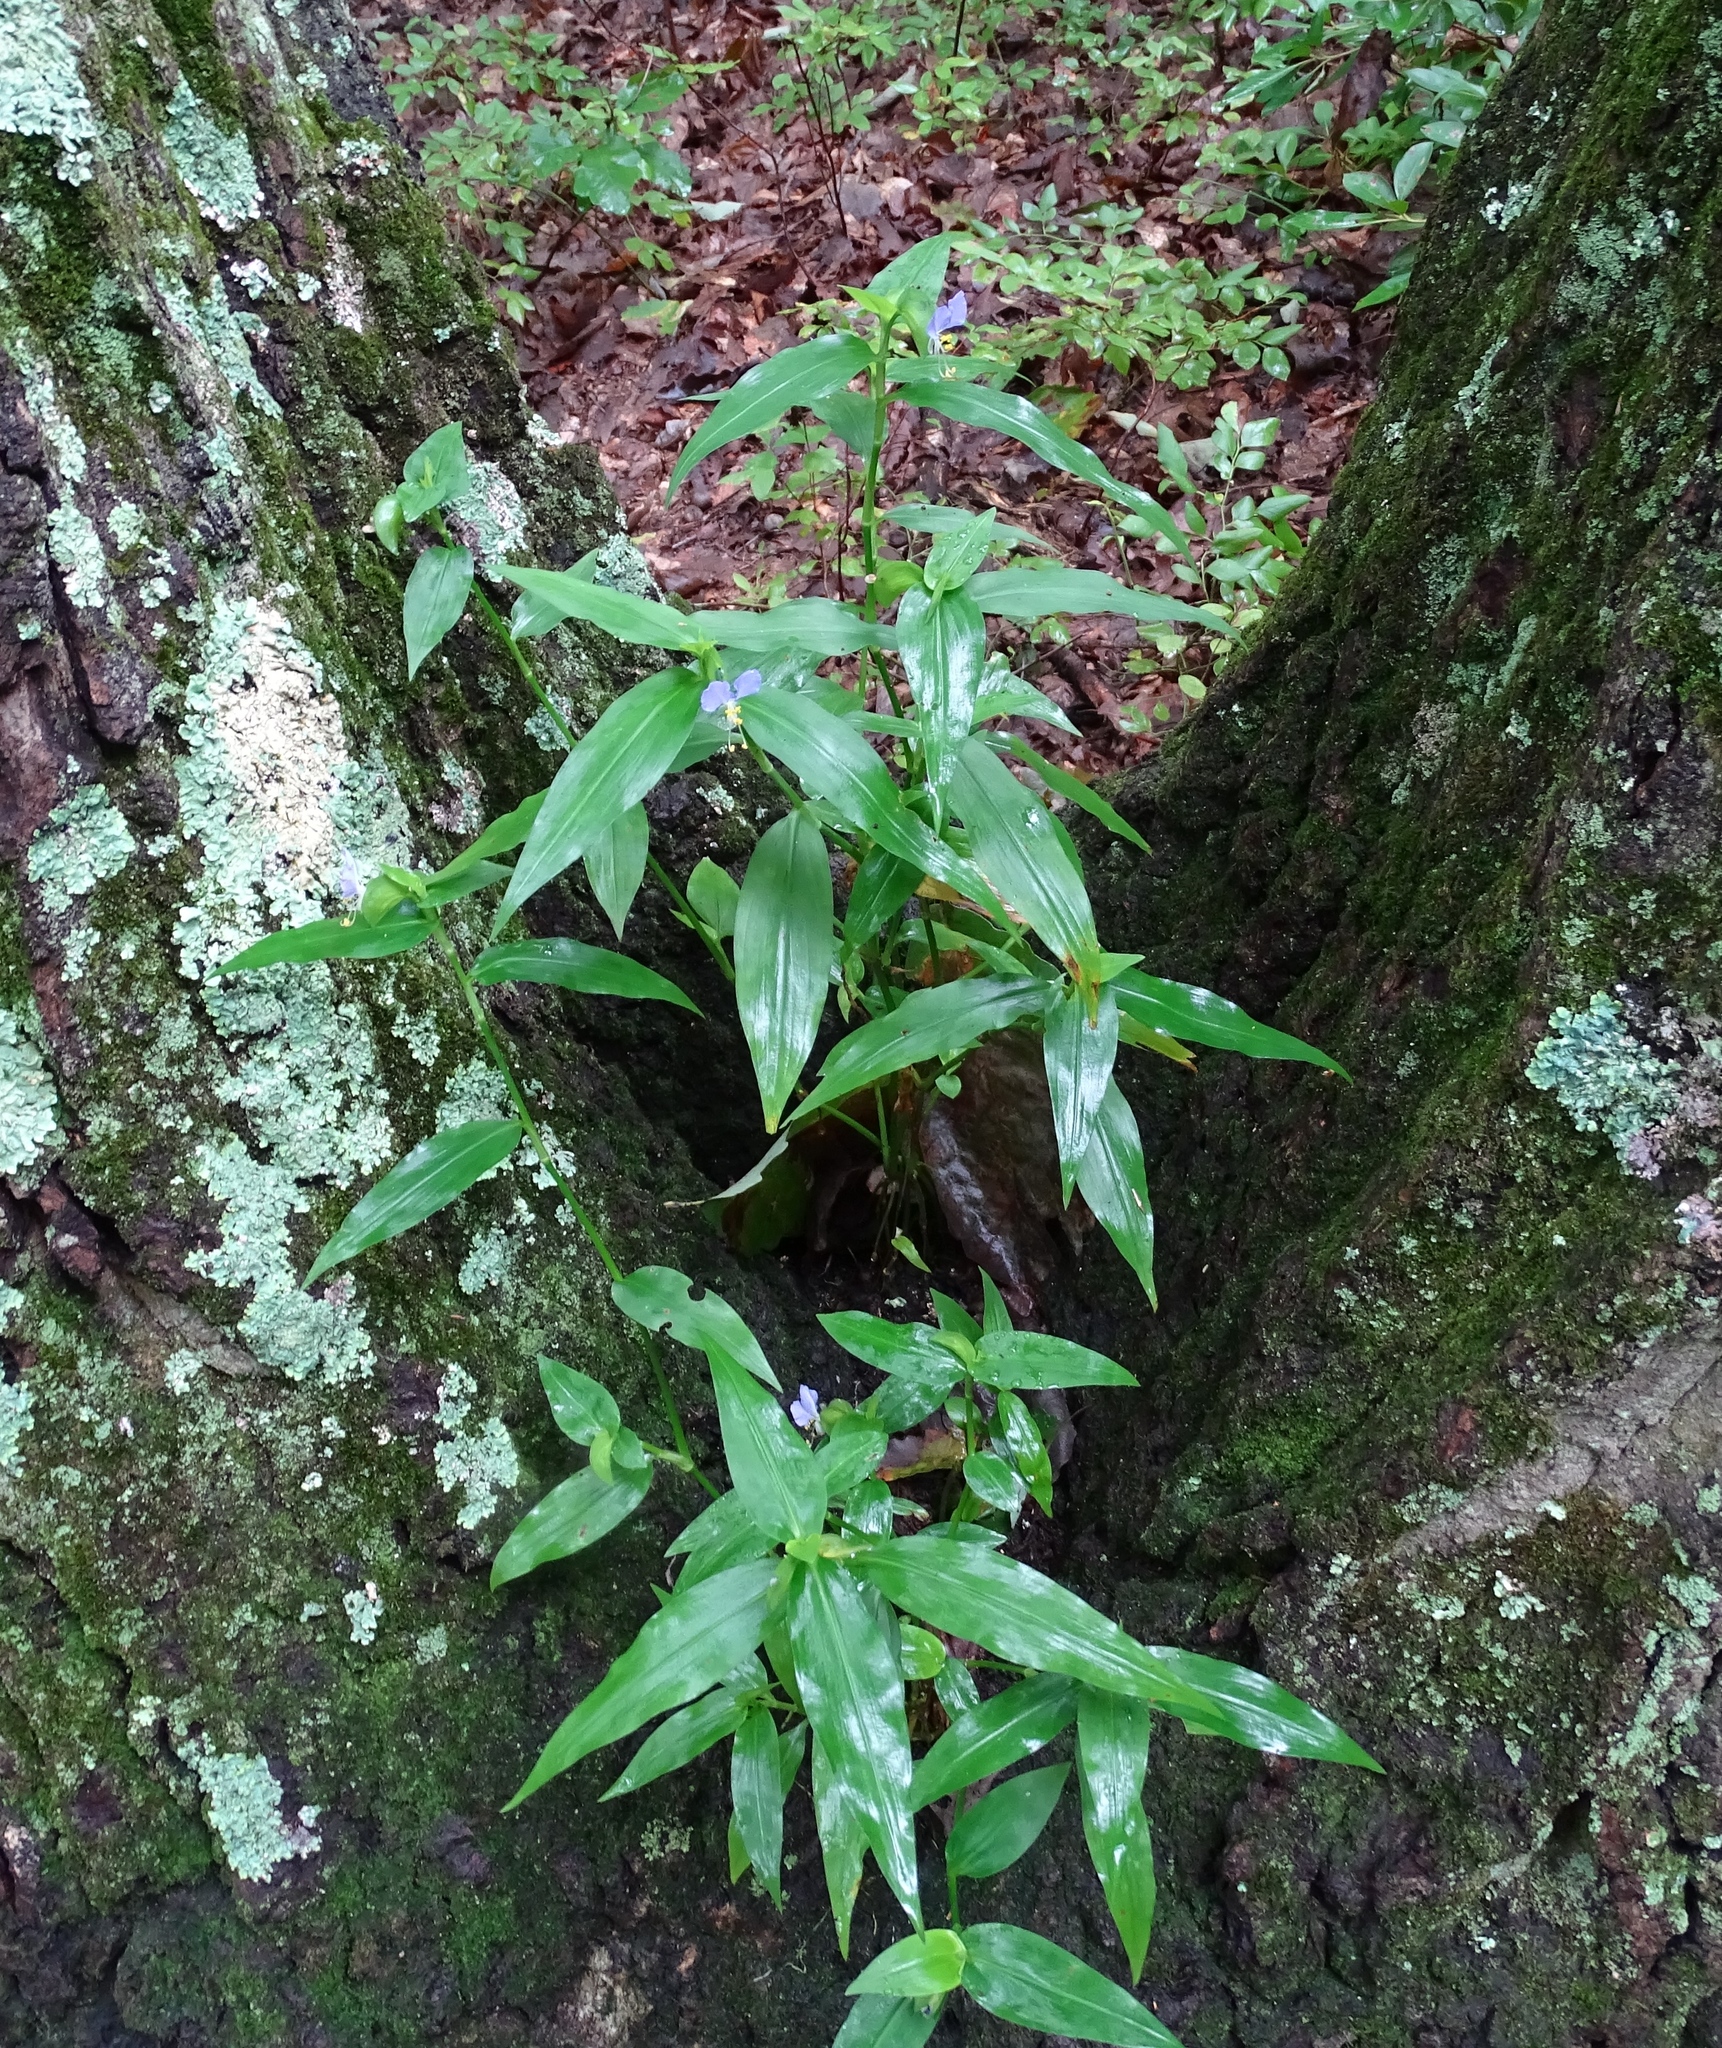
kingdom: Plantae
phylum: Tracheophyta
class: Liliopsida
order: Commelinales
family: Commelinaceae
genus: Commelina
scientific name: Commelina communis
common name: Asiatic dayflower
